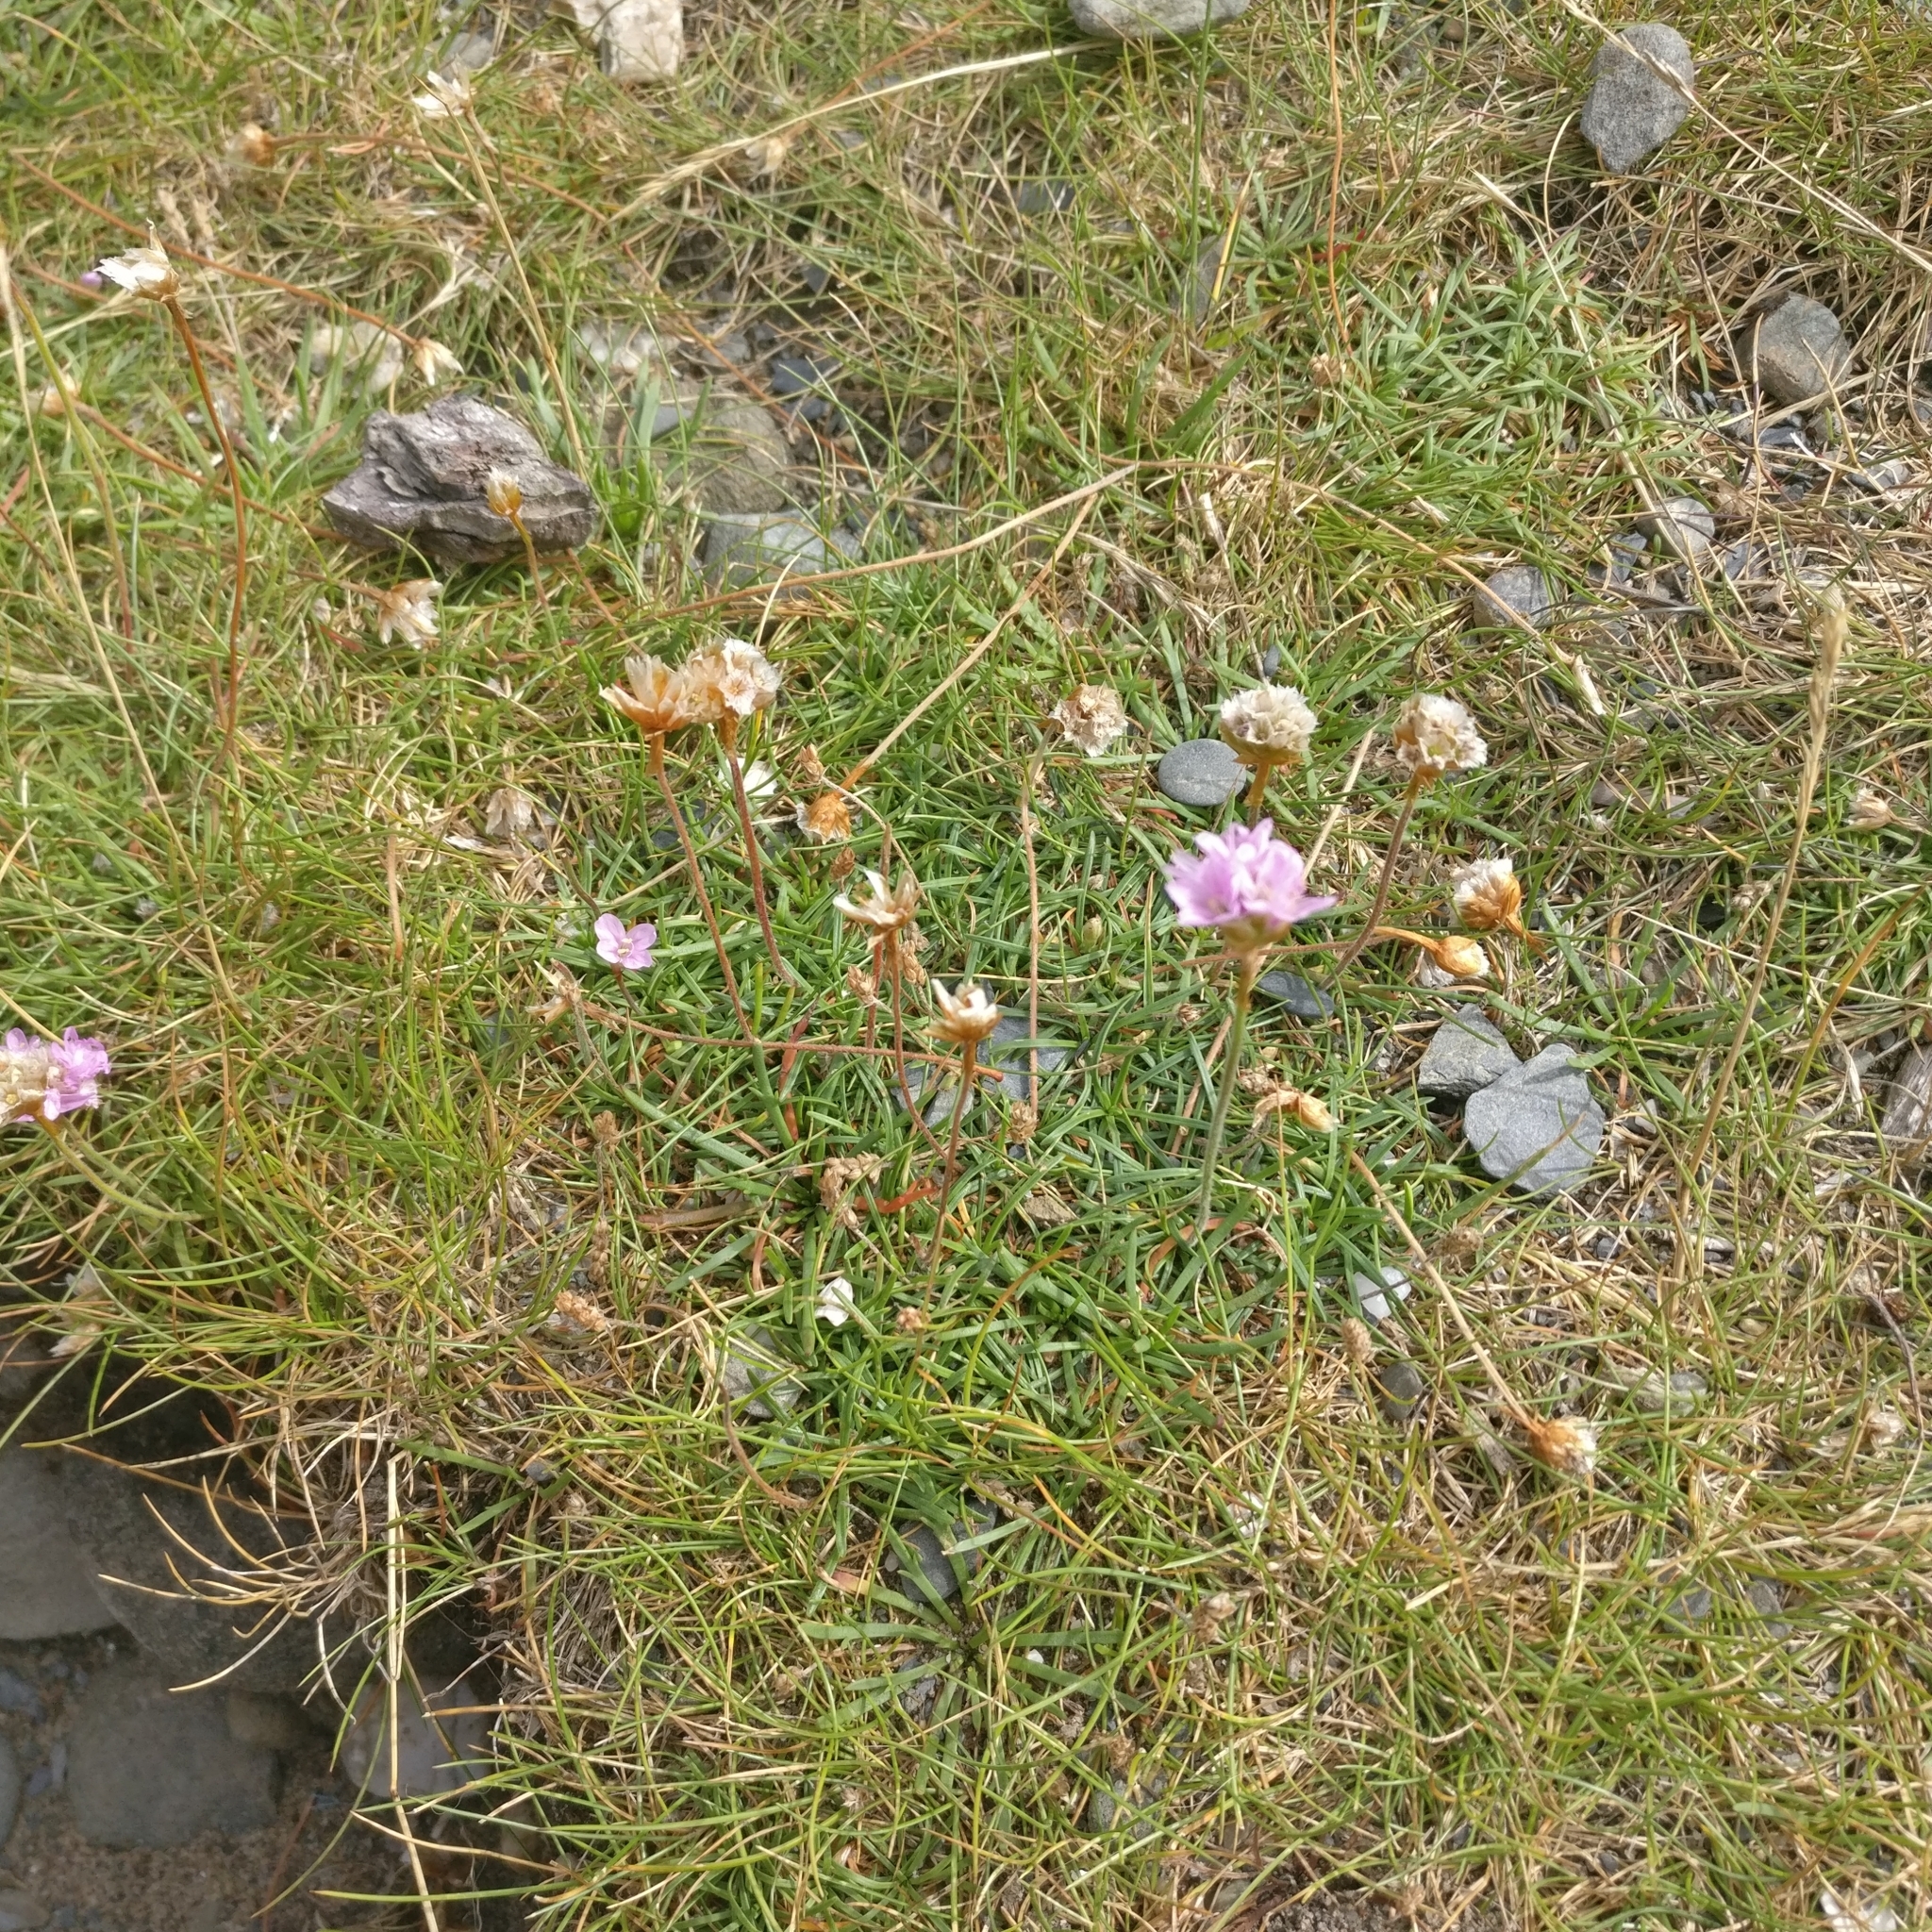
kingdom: Plantae
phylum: Tracheophyta
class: Magnoliopsida
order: Caryophyllales
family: Plumbaginaceae
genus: Armeria
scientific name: Armeria maritima
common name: Thrift
